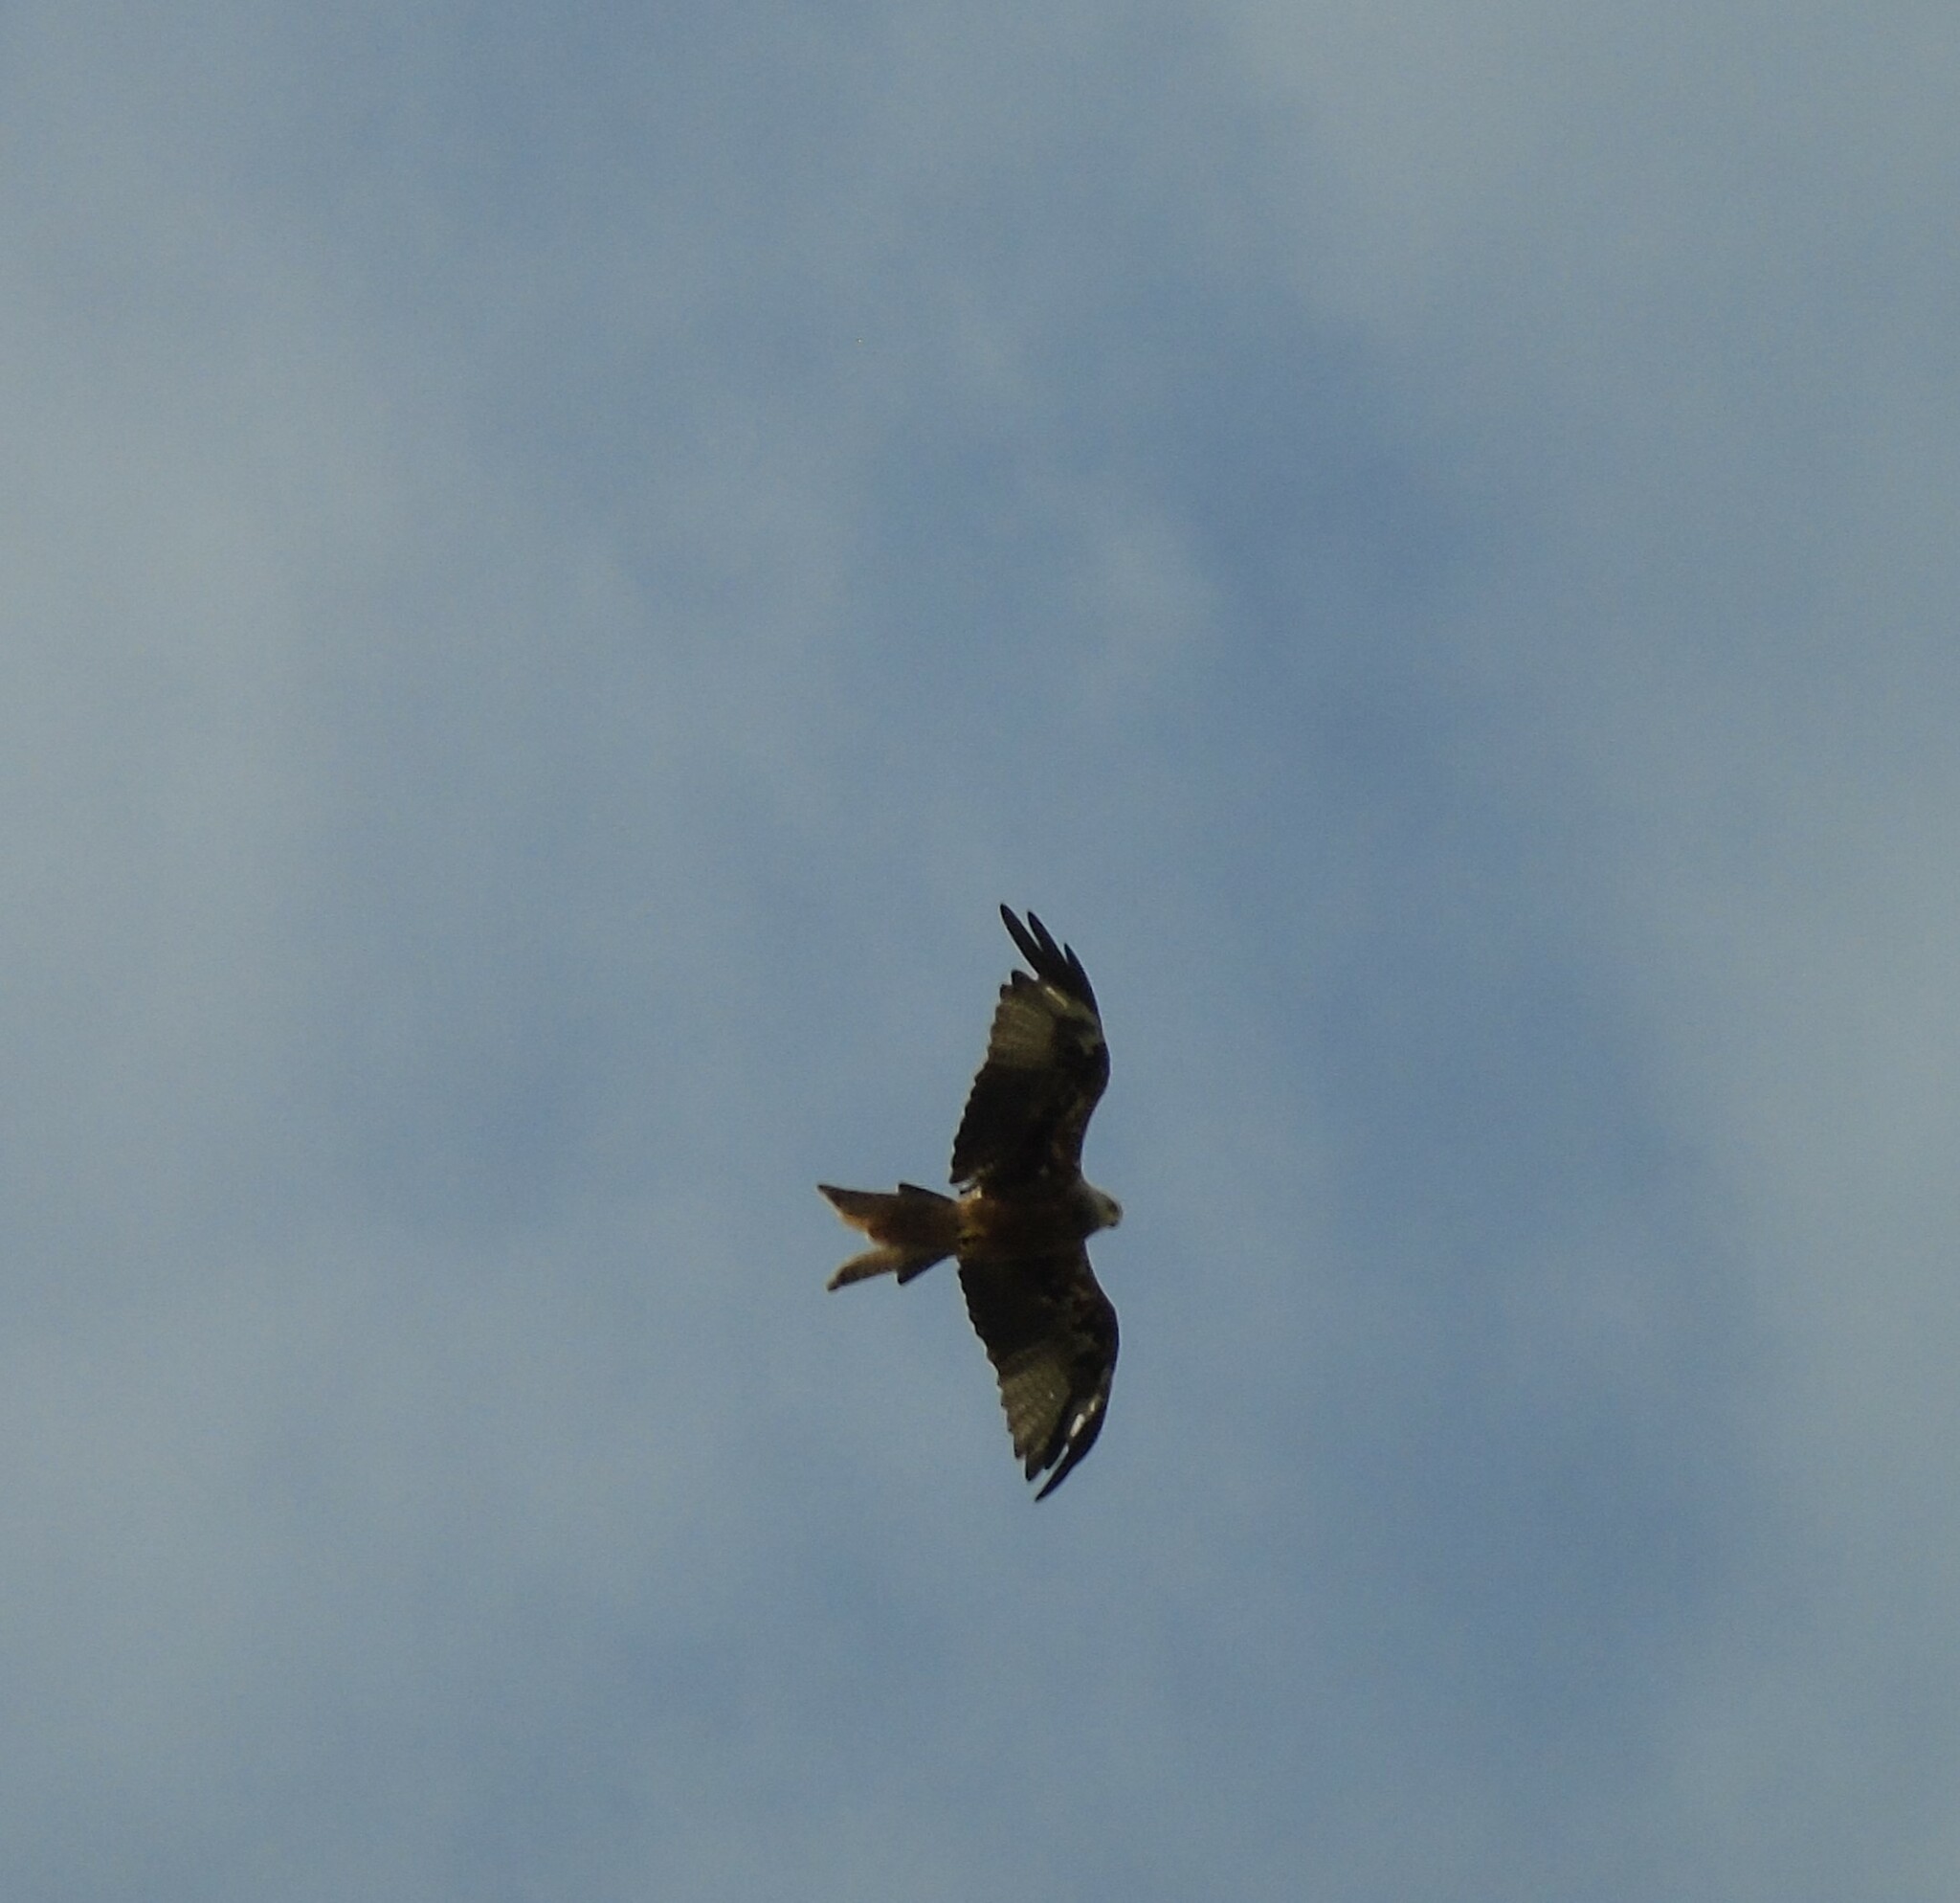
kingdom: Animalia
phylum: Chordata
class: Aves
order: Accipitriformes
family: Accipitridae
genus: Milvus
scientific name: Milvus milvus
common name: Red kite
